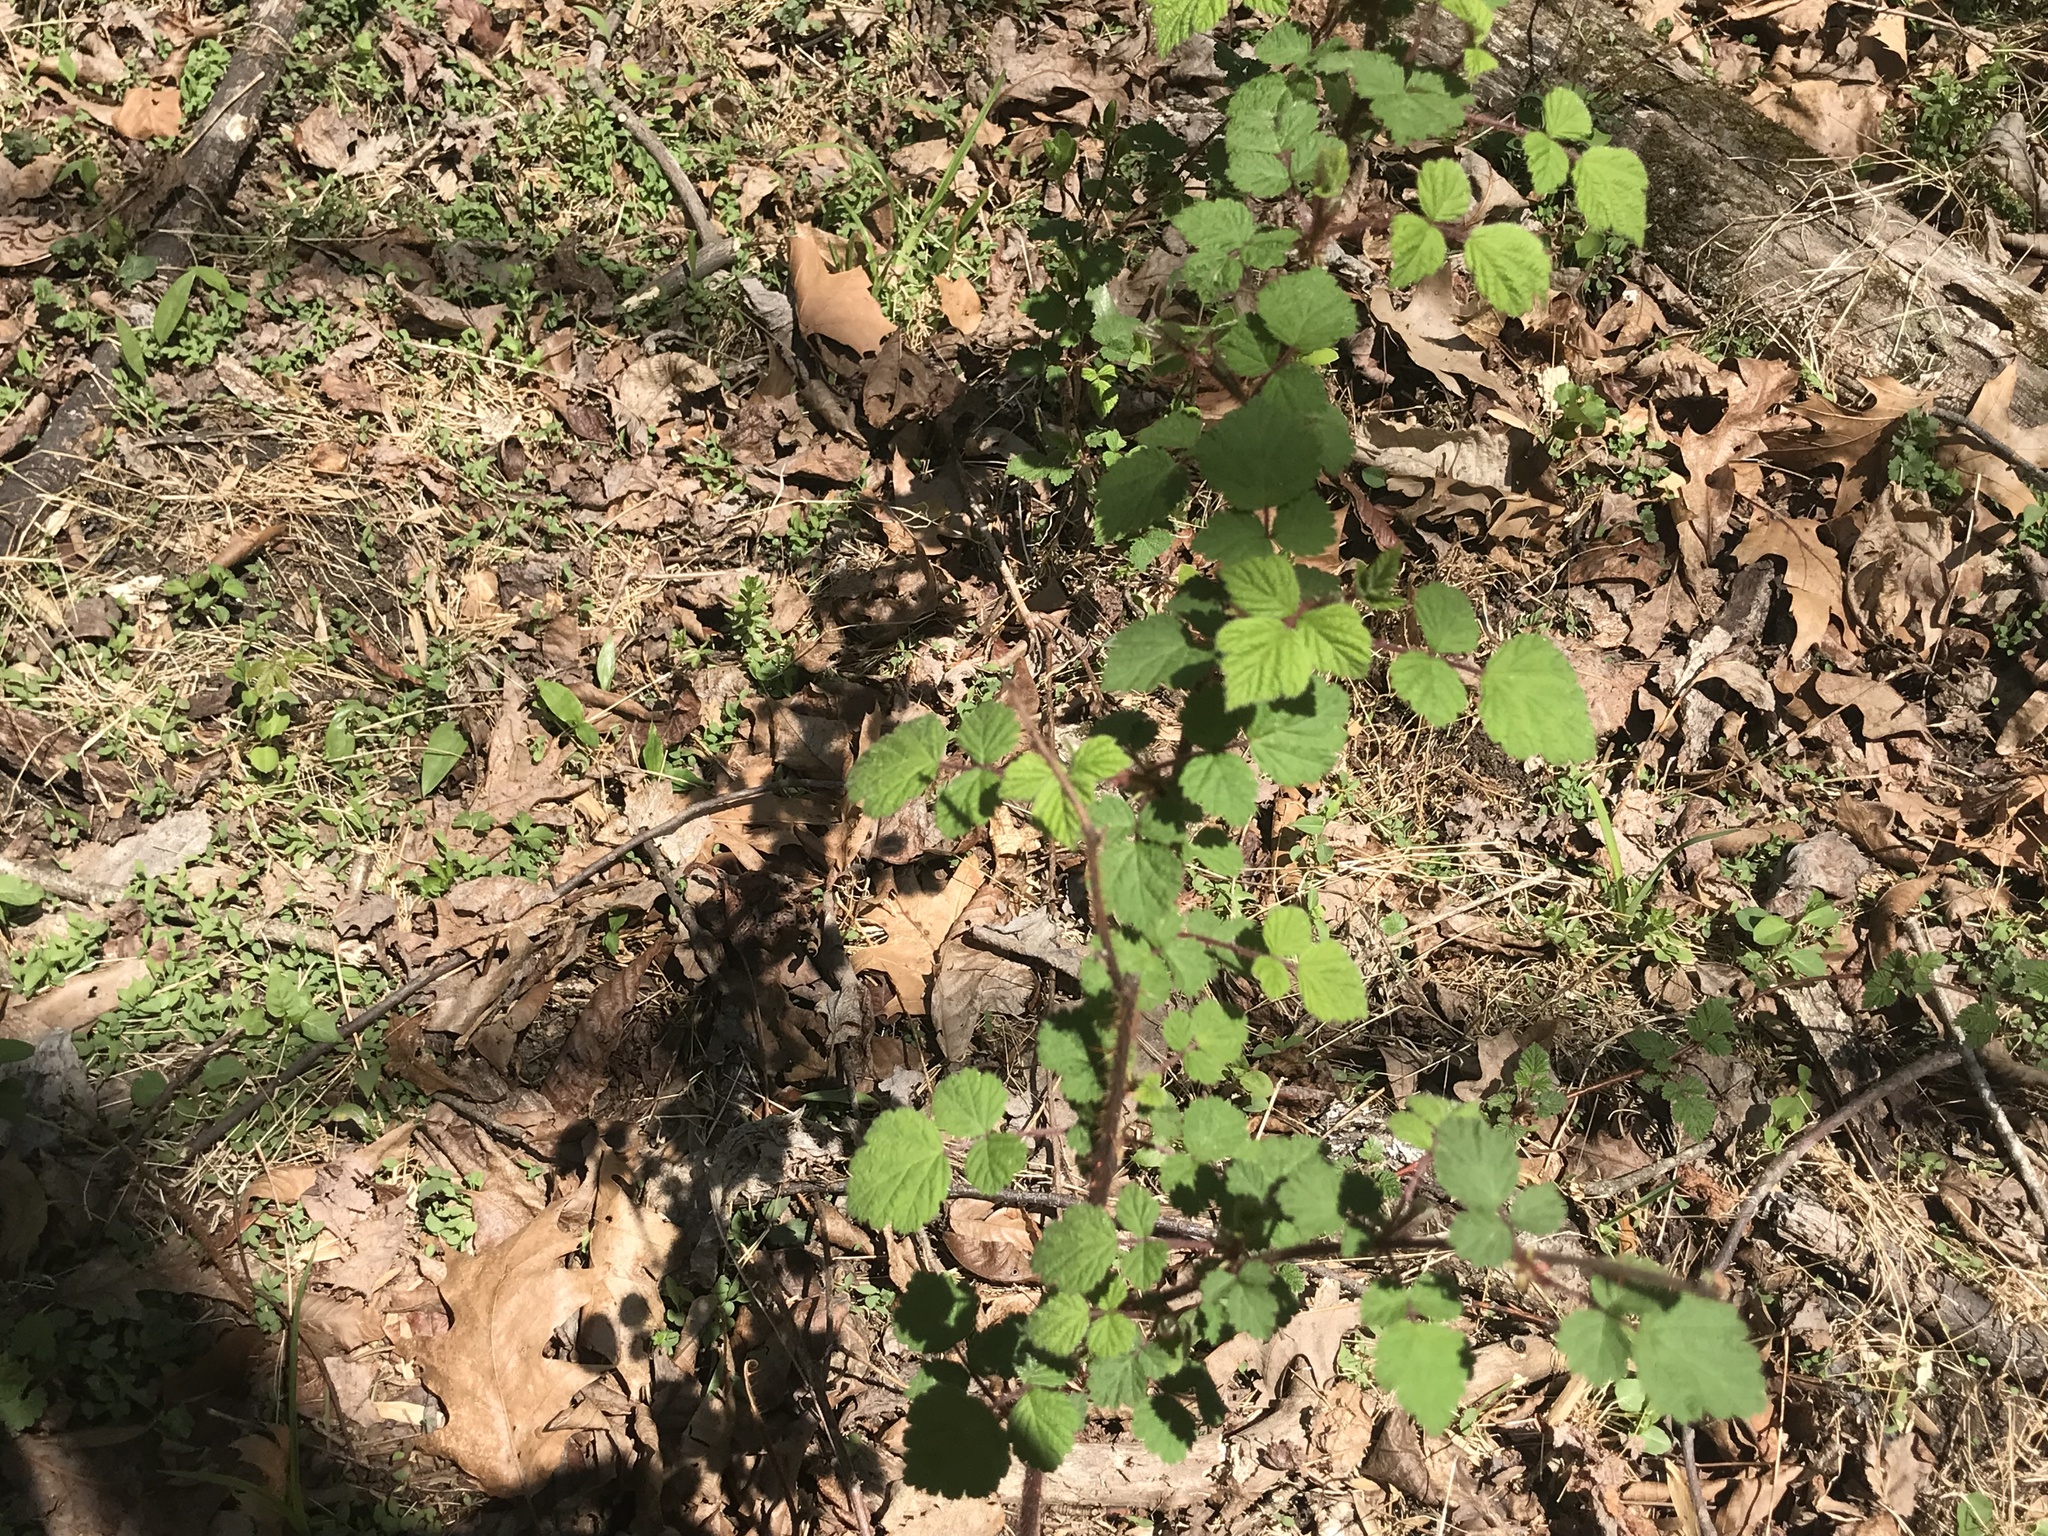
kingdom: Plantae
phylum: Tracheophyta
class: Magnoliopsida
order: Rosales
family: Rosaceae
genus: Rubus
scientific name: Rubus phoenicolasius
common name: Japanese wineberry
